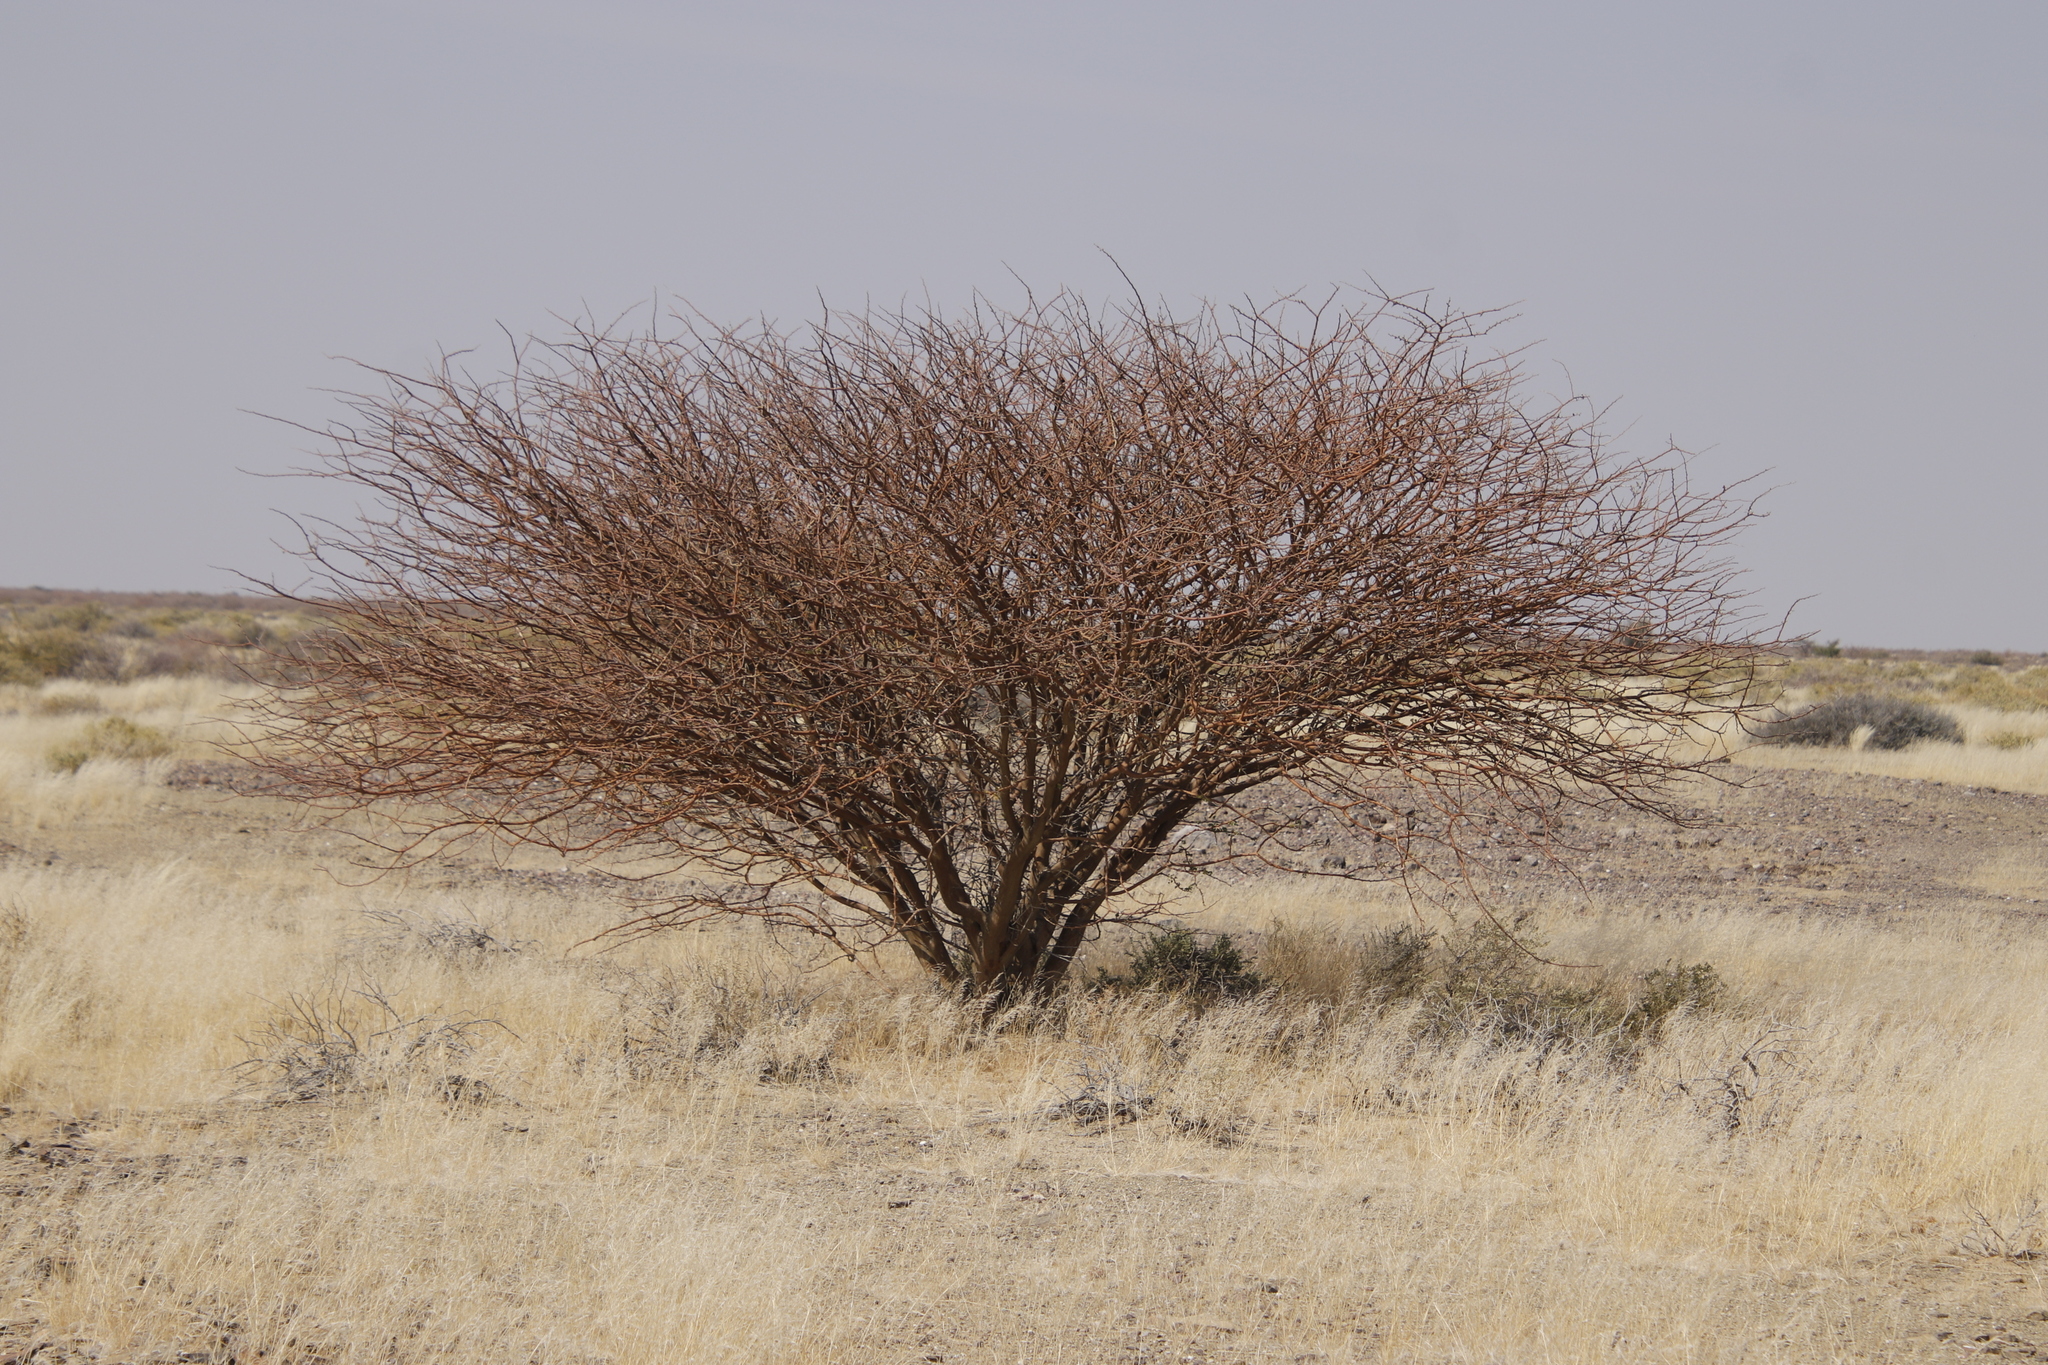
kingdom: Plantae
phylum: Tracheophyta
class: Magnoliopsida
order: Fabales
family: Fabaceae
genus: Senegalia
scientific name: Senegalia mellifera
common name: Hookthorn
